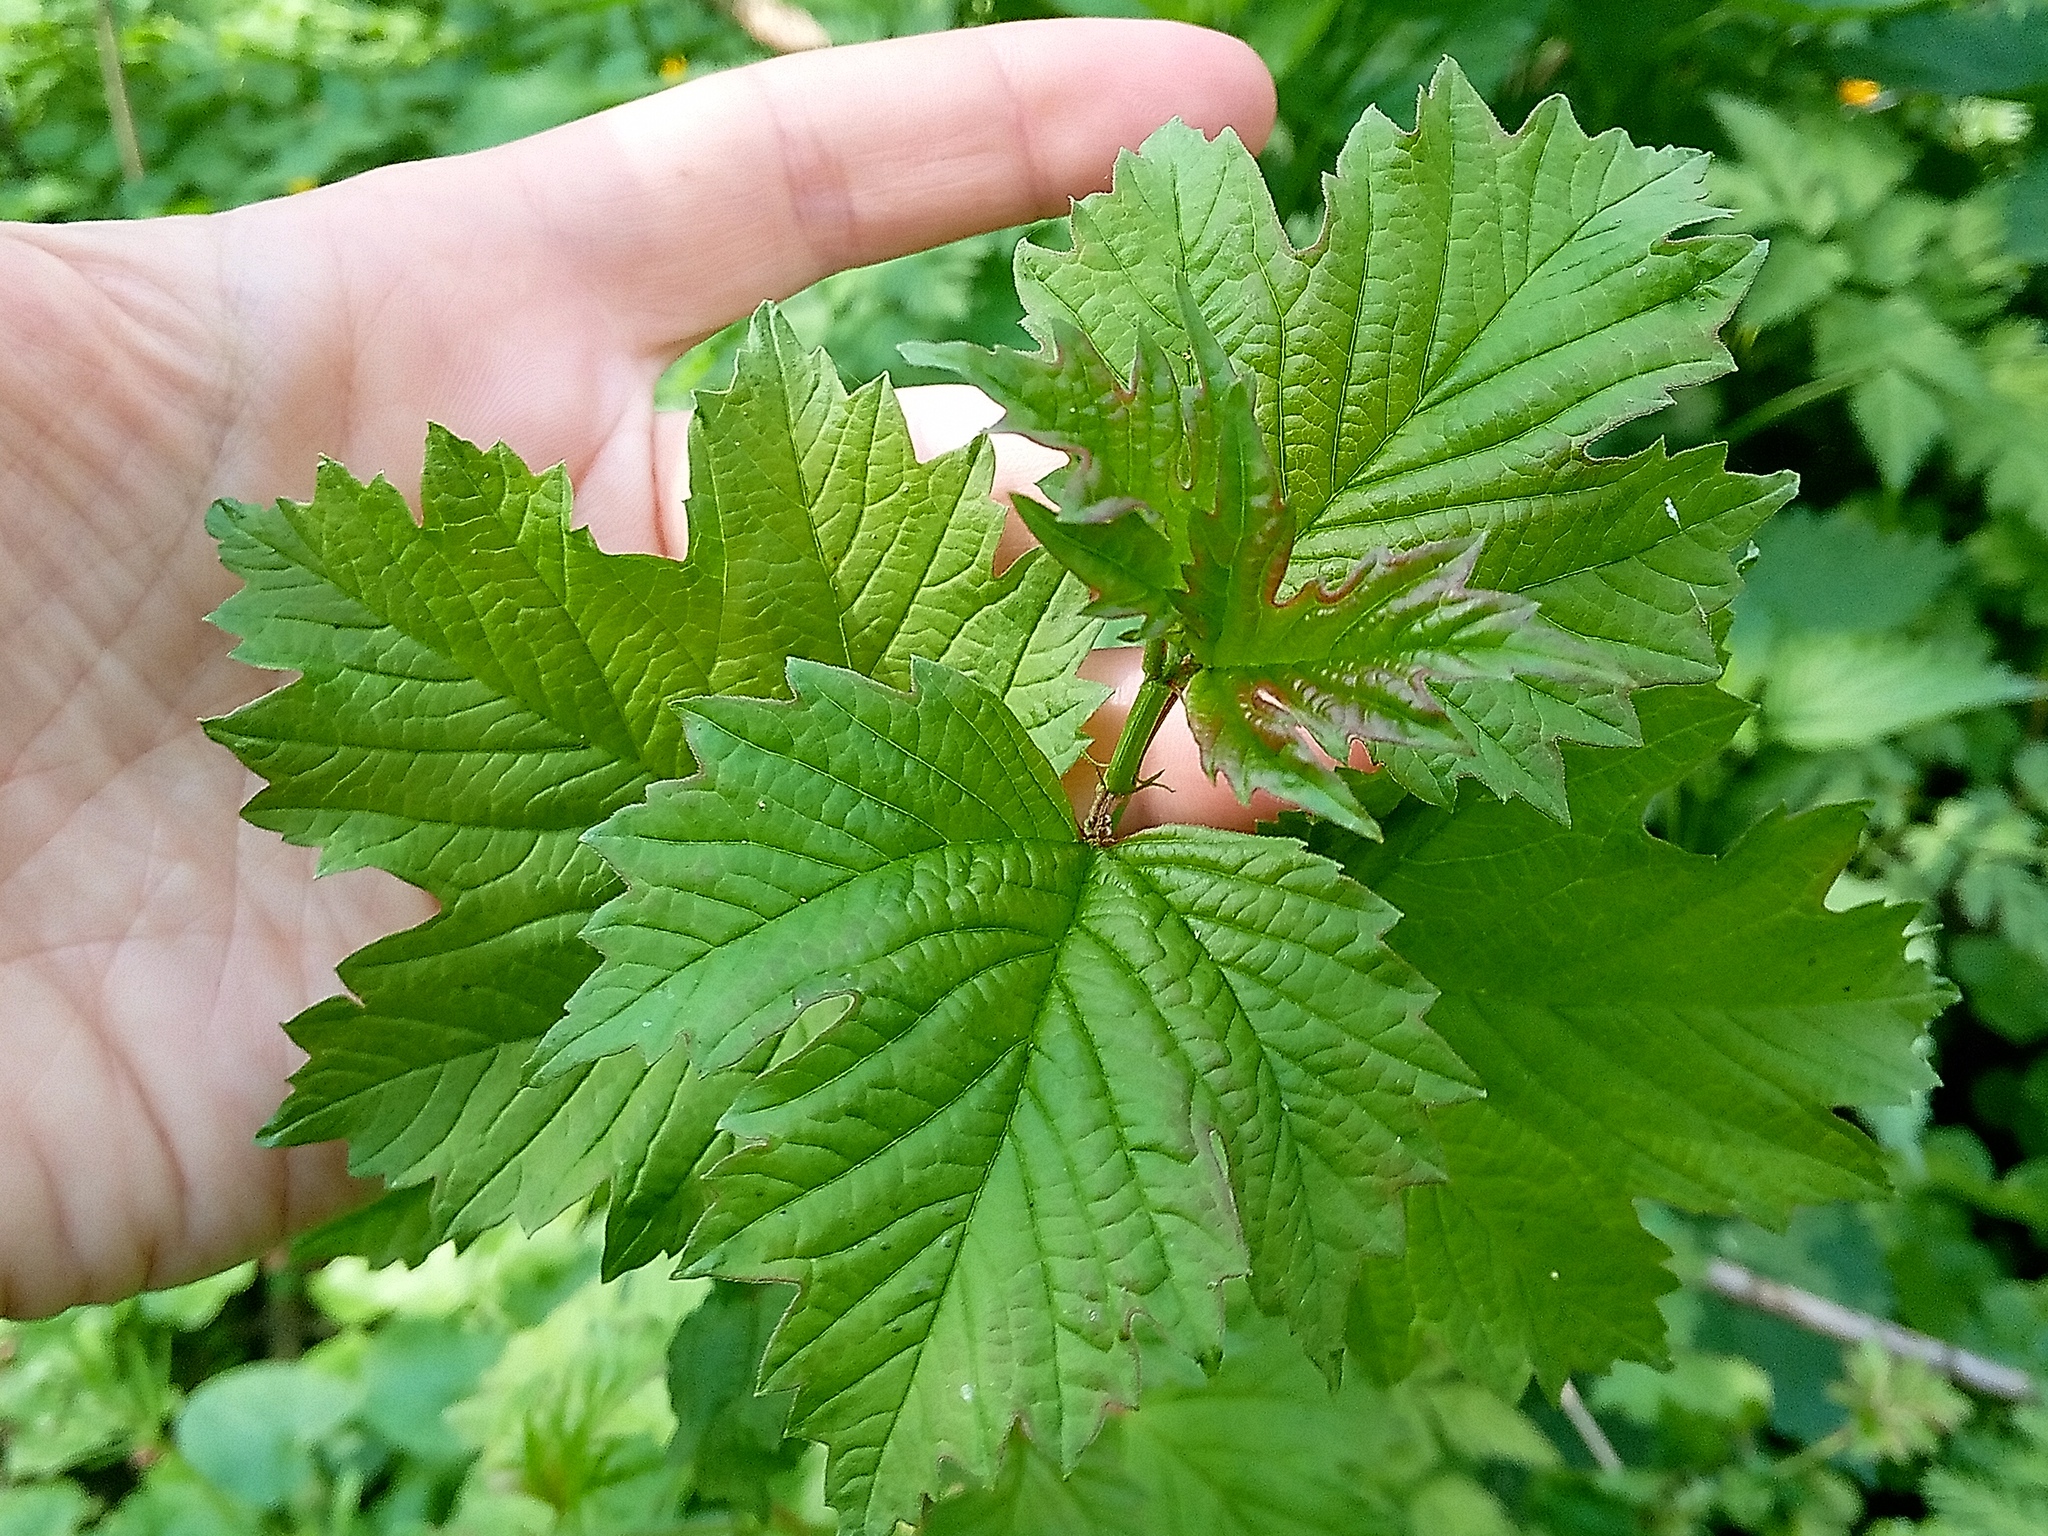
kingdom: Plantae
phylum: Tracheophyta
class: Magnoliopsida
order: Dipsacales
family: Viburnaceae
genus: Viburnum
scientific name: Viburnum opulus
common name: Guelder-rose
